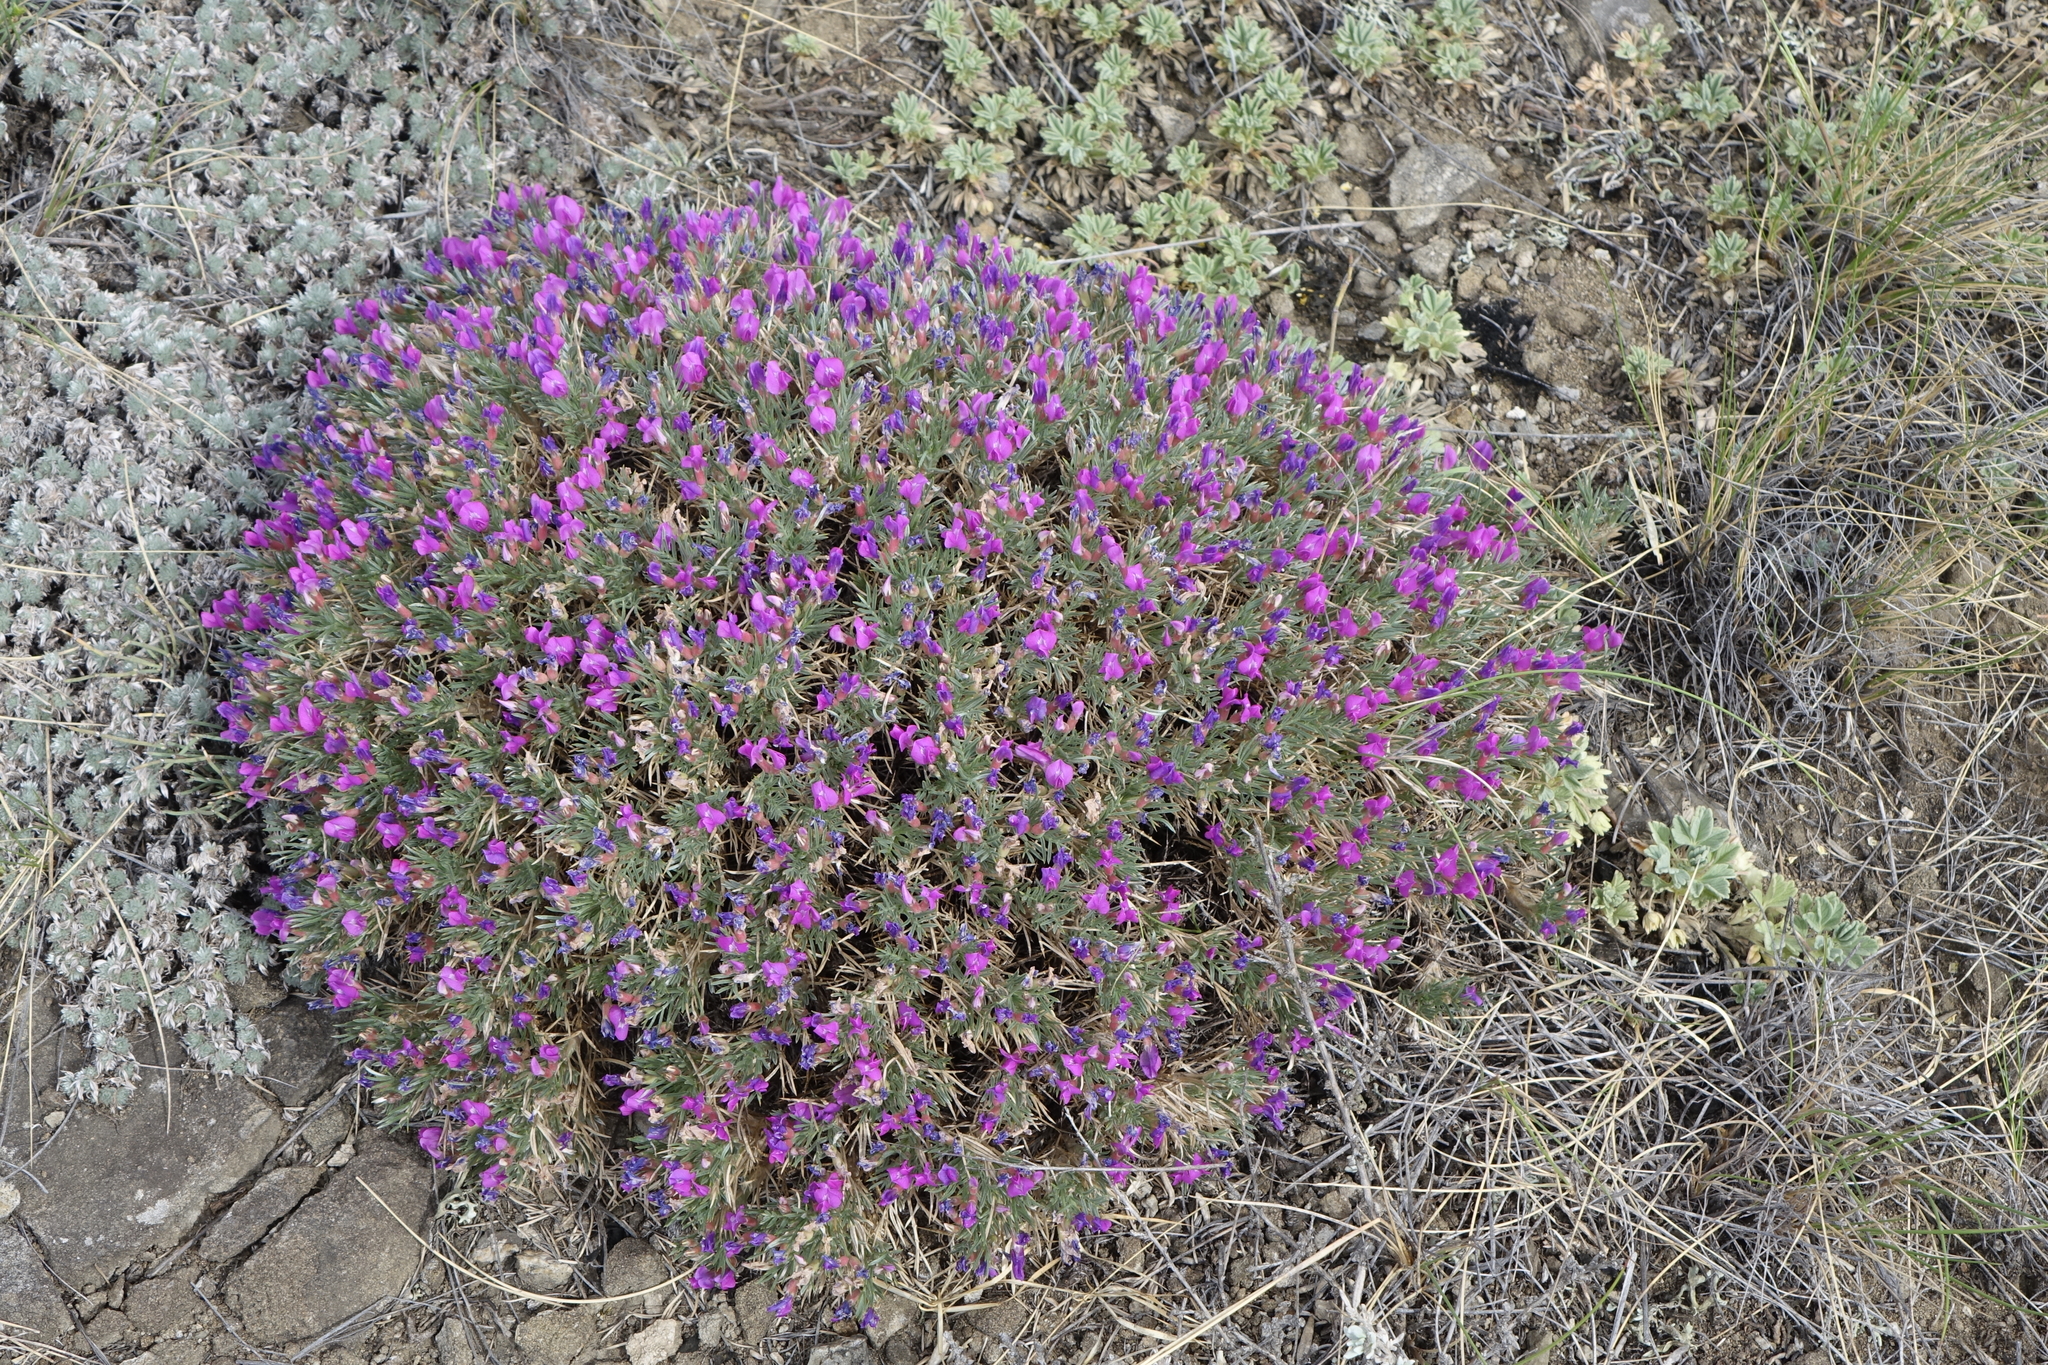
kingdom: Plantae
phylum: Tracheophyta
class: Magnoliopsida
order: Fabales
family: Fabaceae
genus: Oxytropis
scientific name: Oxytropis borissoviae
